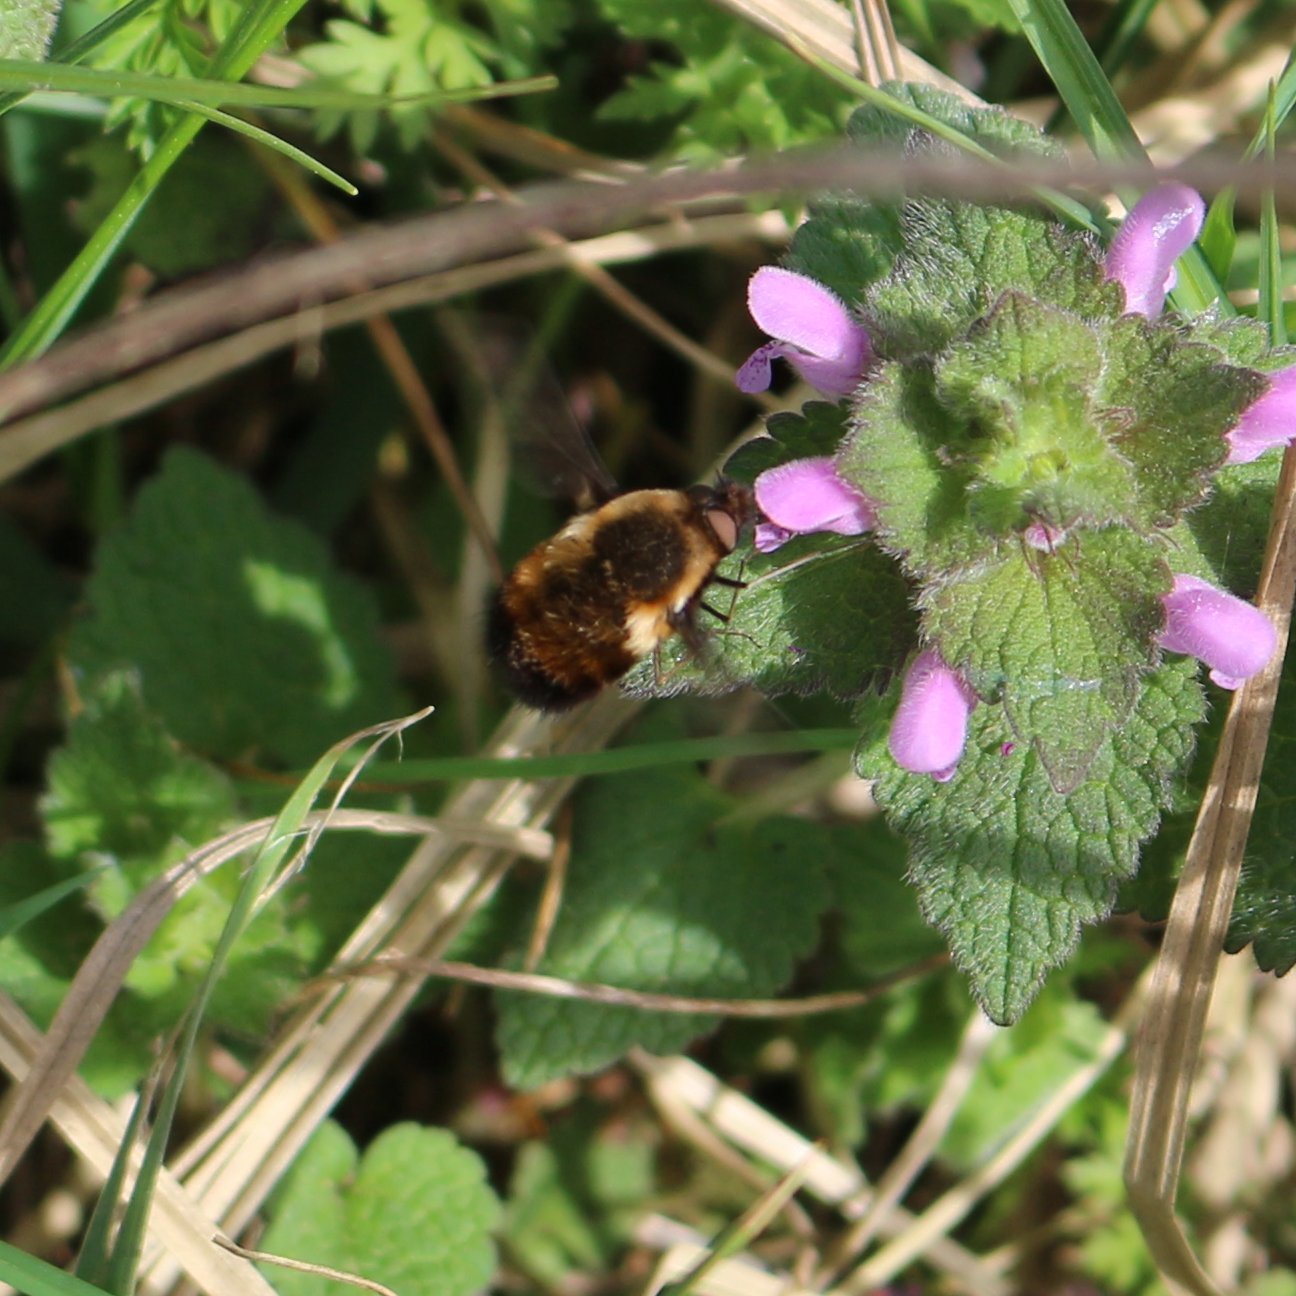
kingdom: Animalia
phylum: Arthropoda
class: Insecta
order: Diptera
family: Bombyliidae
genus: Bombylius
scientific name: Bombylius discolor
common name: Dotted bee-fly
